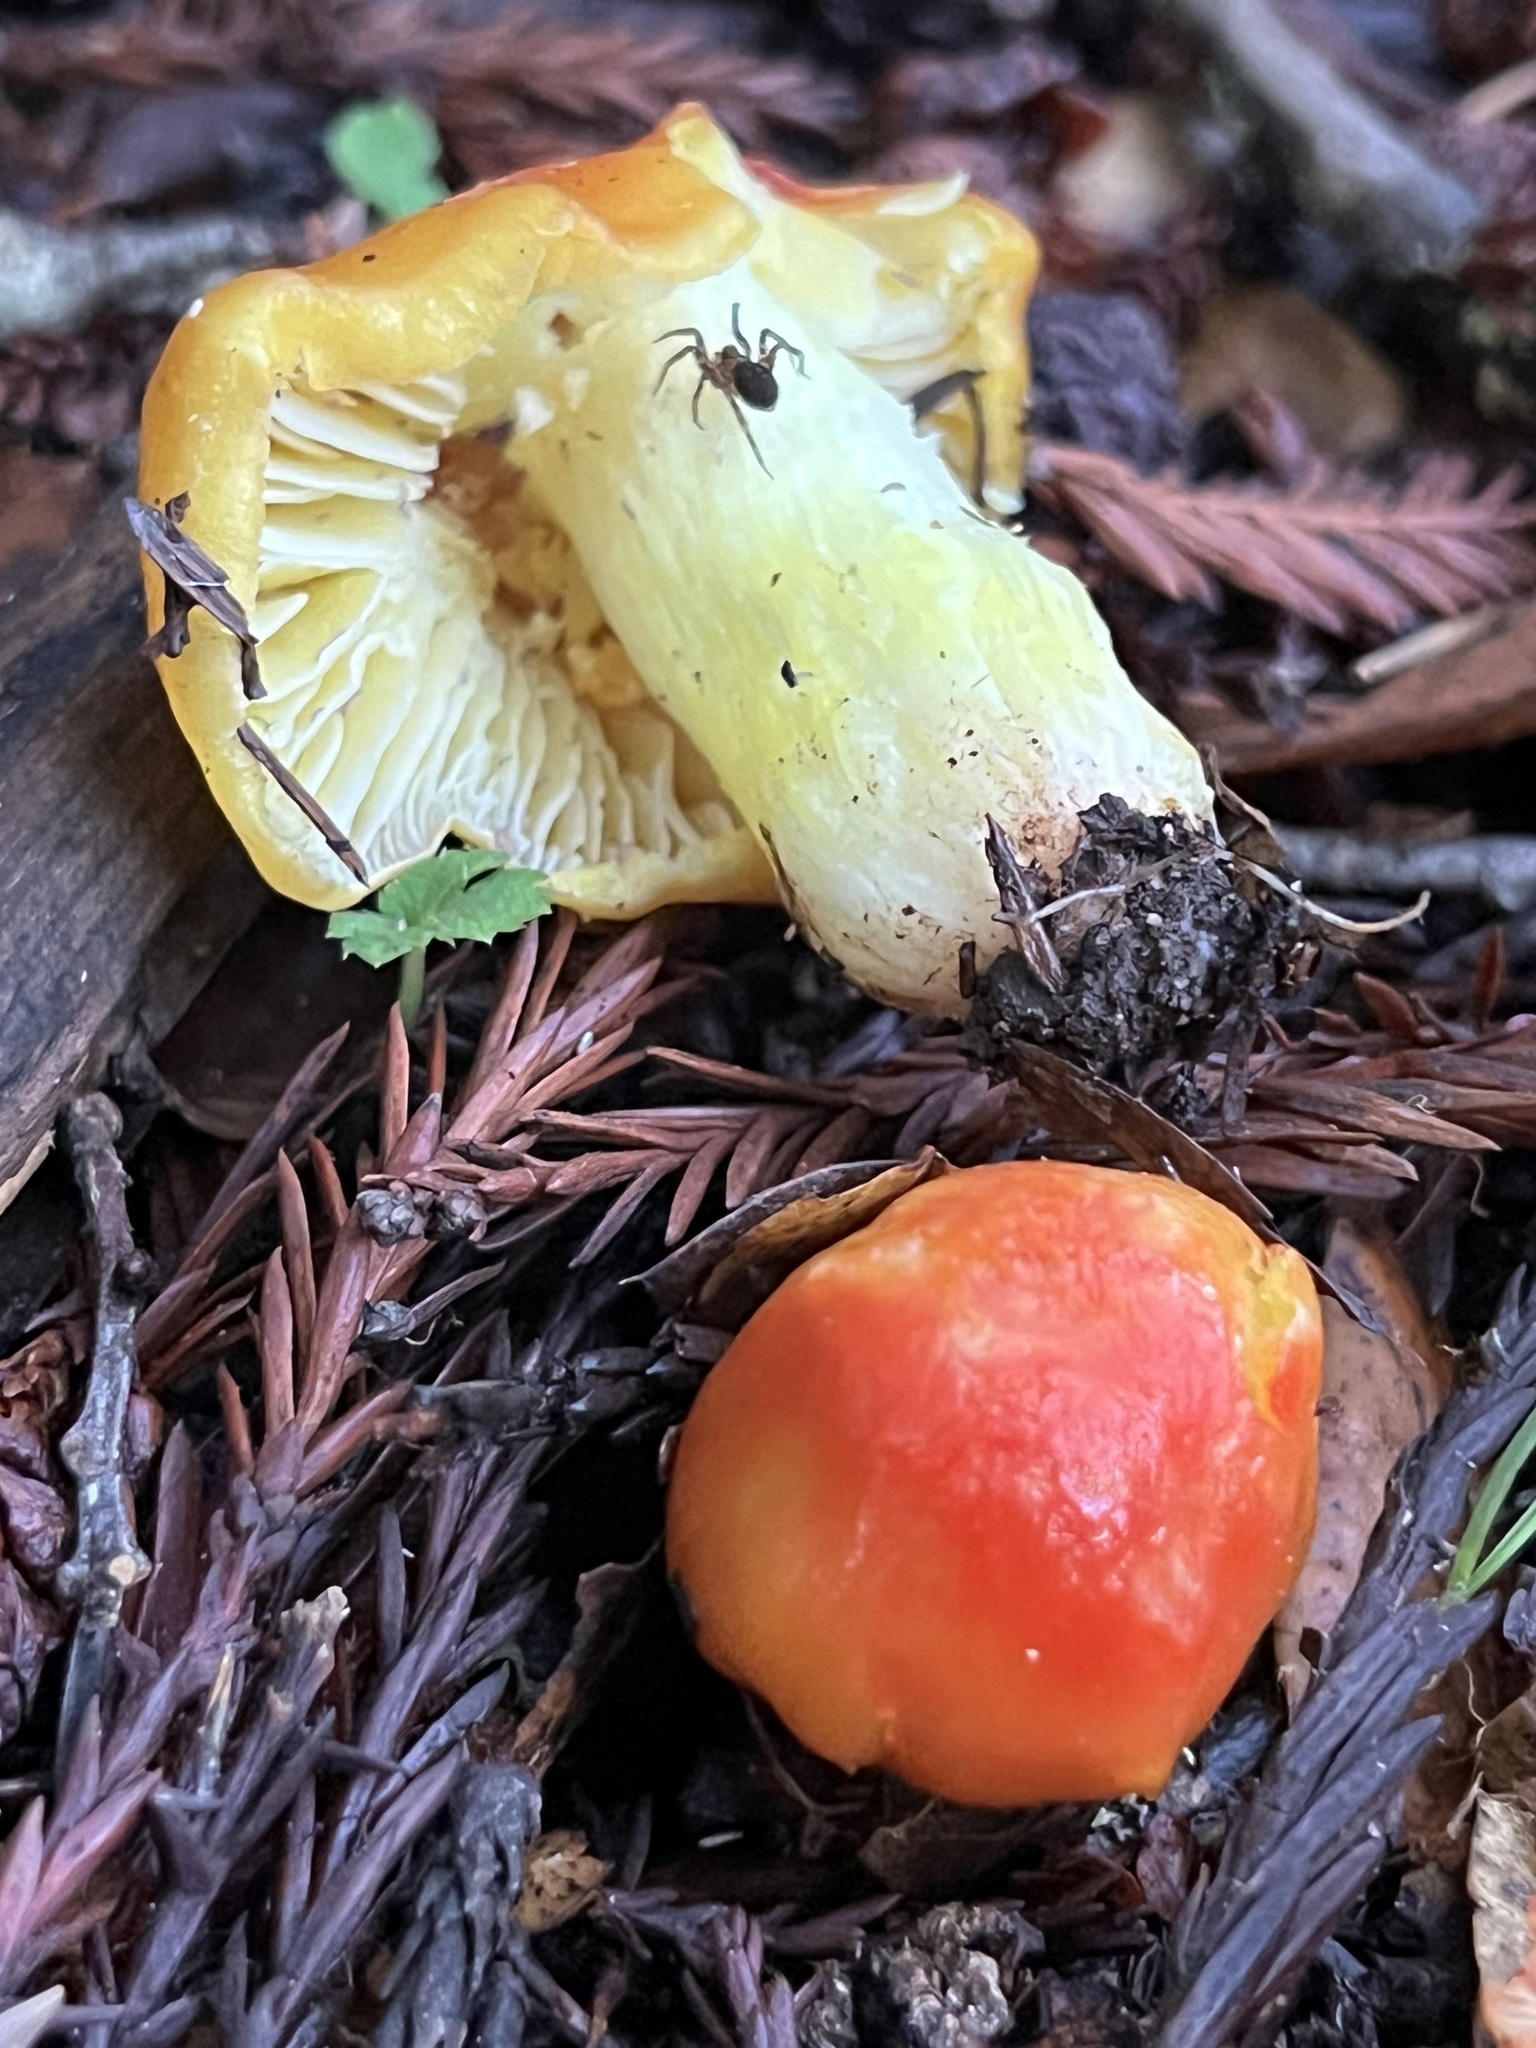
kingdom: Fungi
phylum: Basidiomycota
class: Agaricomycetes
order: Agaricales
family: Hygrophoraceae
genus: Hygrocybe
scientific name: Hygrocybe laetissima
